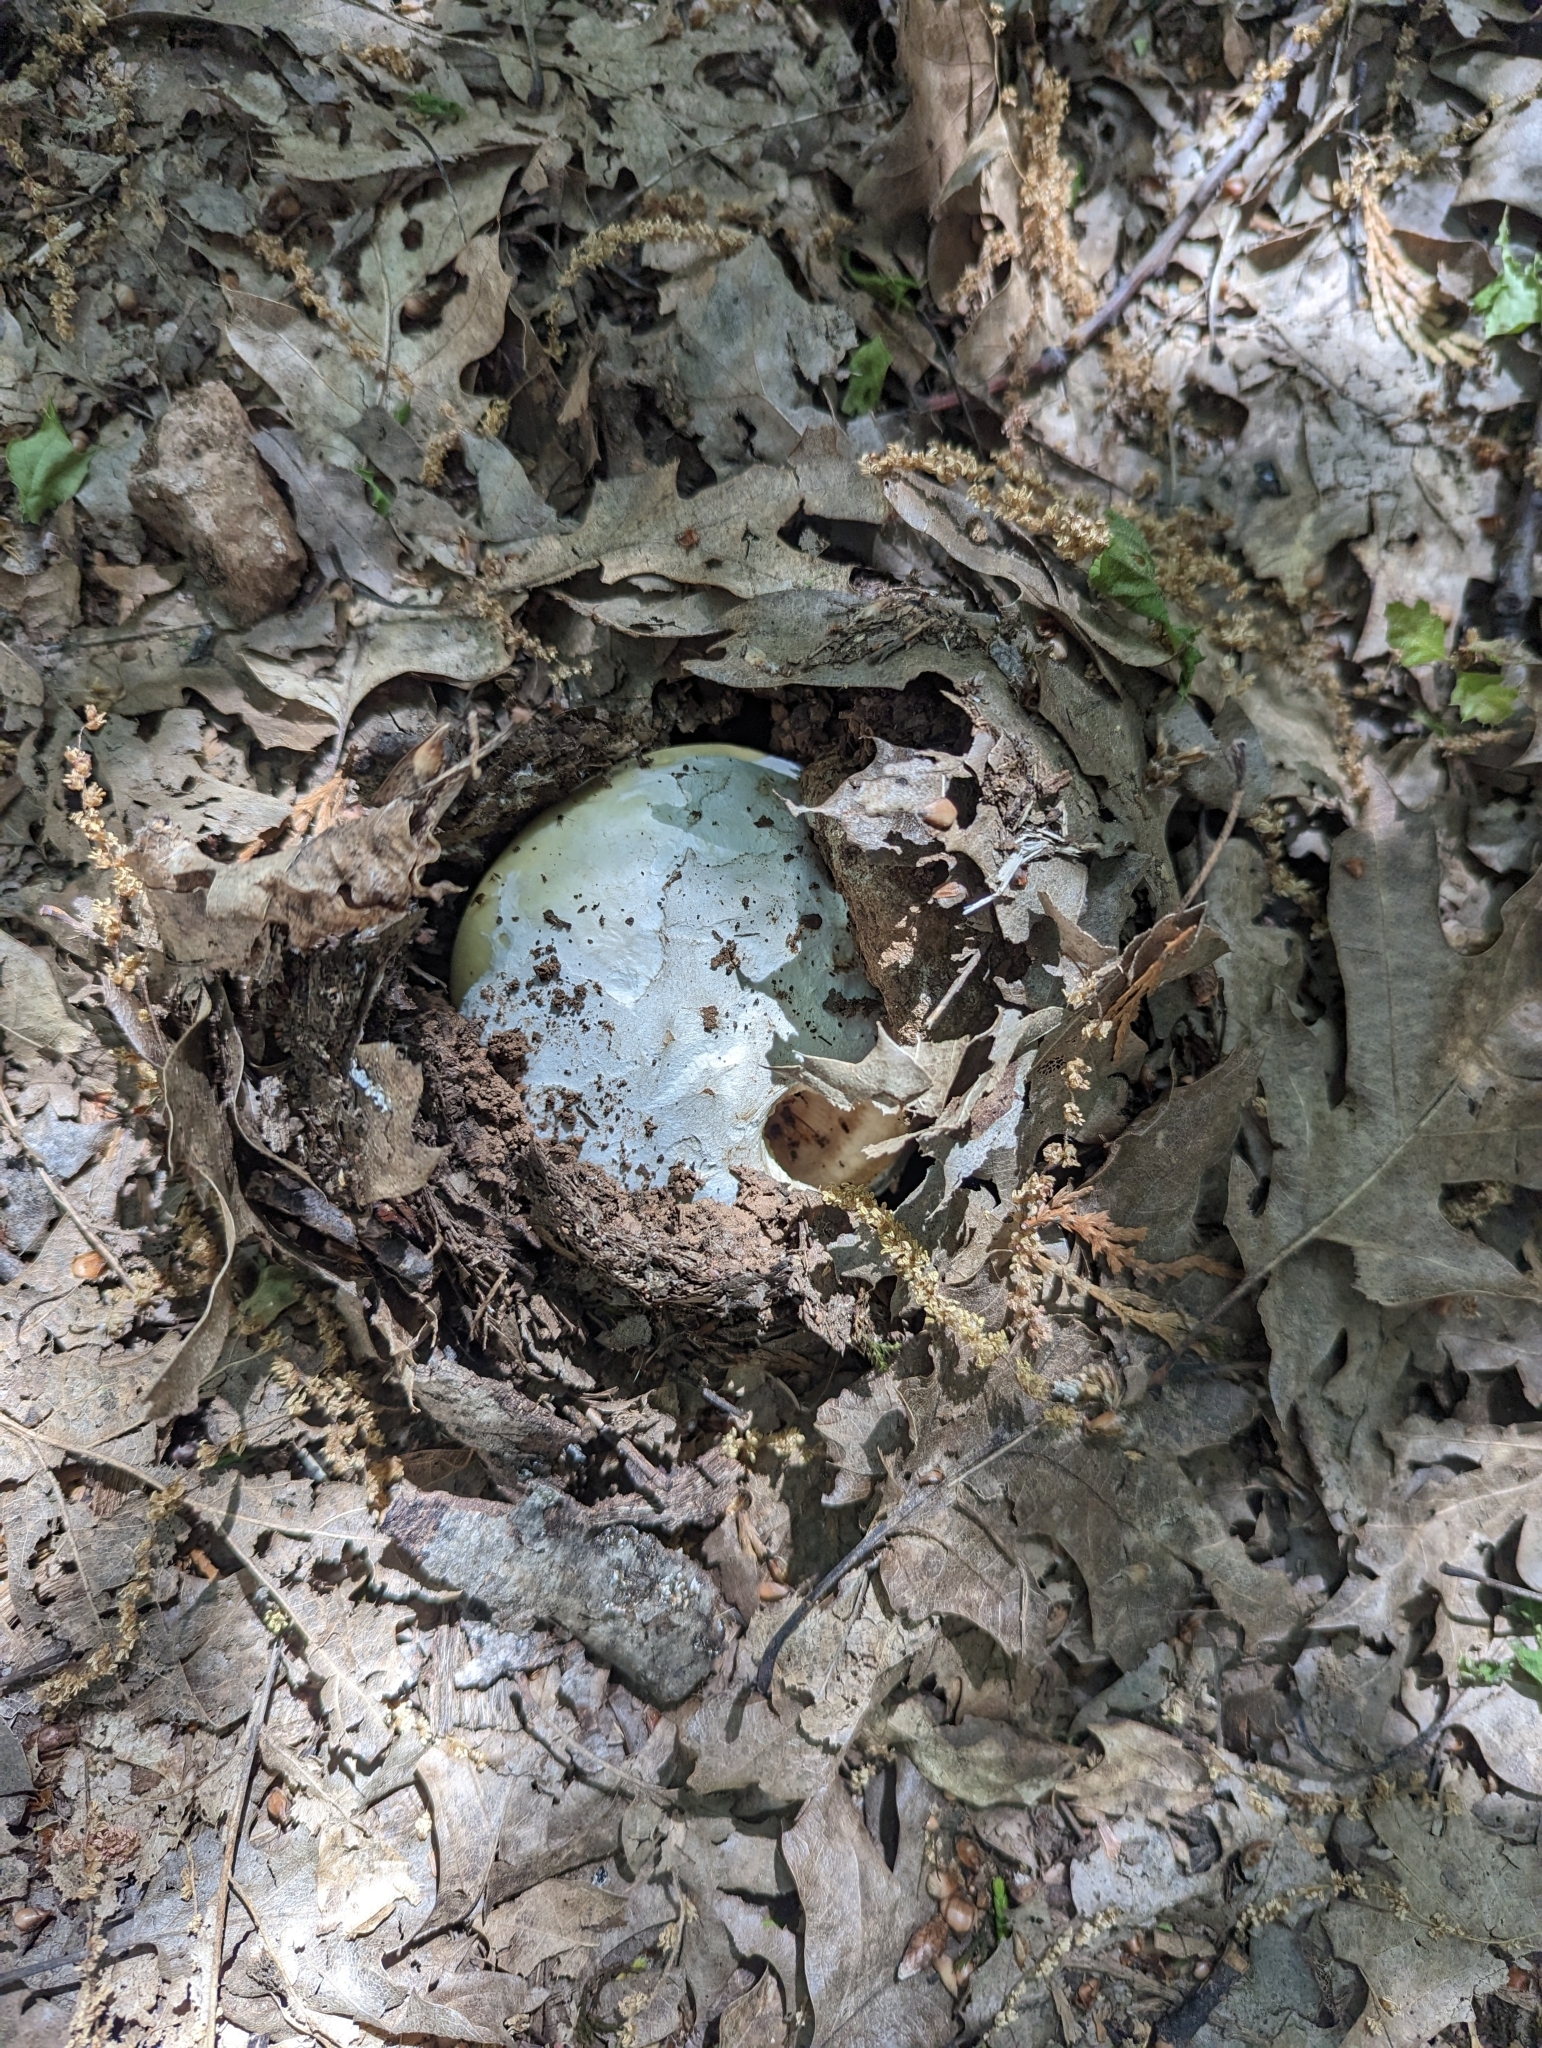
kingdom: Fungi
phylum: Basidiomycota
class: Agaricomycetes
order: Agaricales
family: Amanitaceae
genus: Amanita
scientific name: Amanita vernicoccora
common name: Spring coccora
